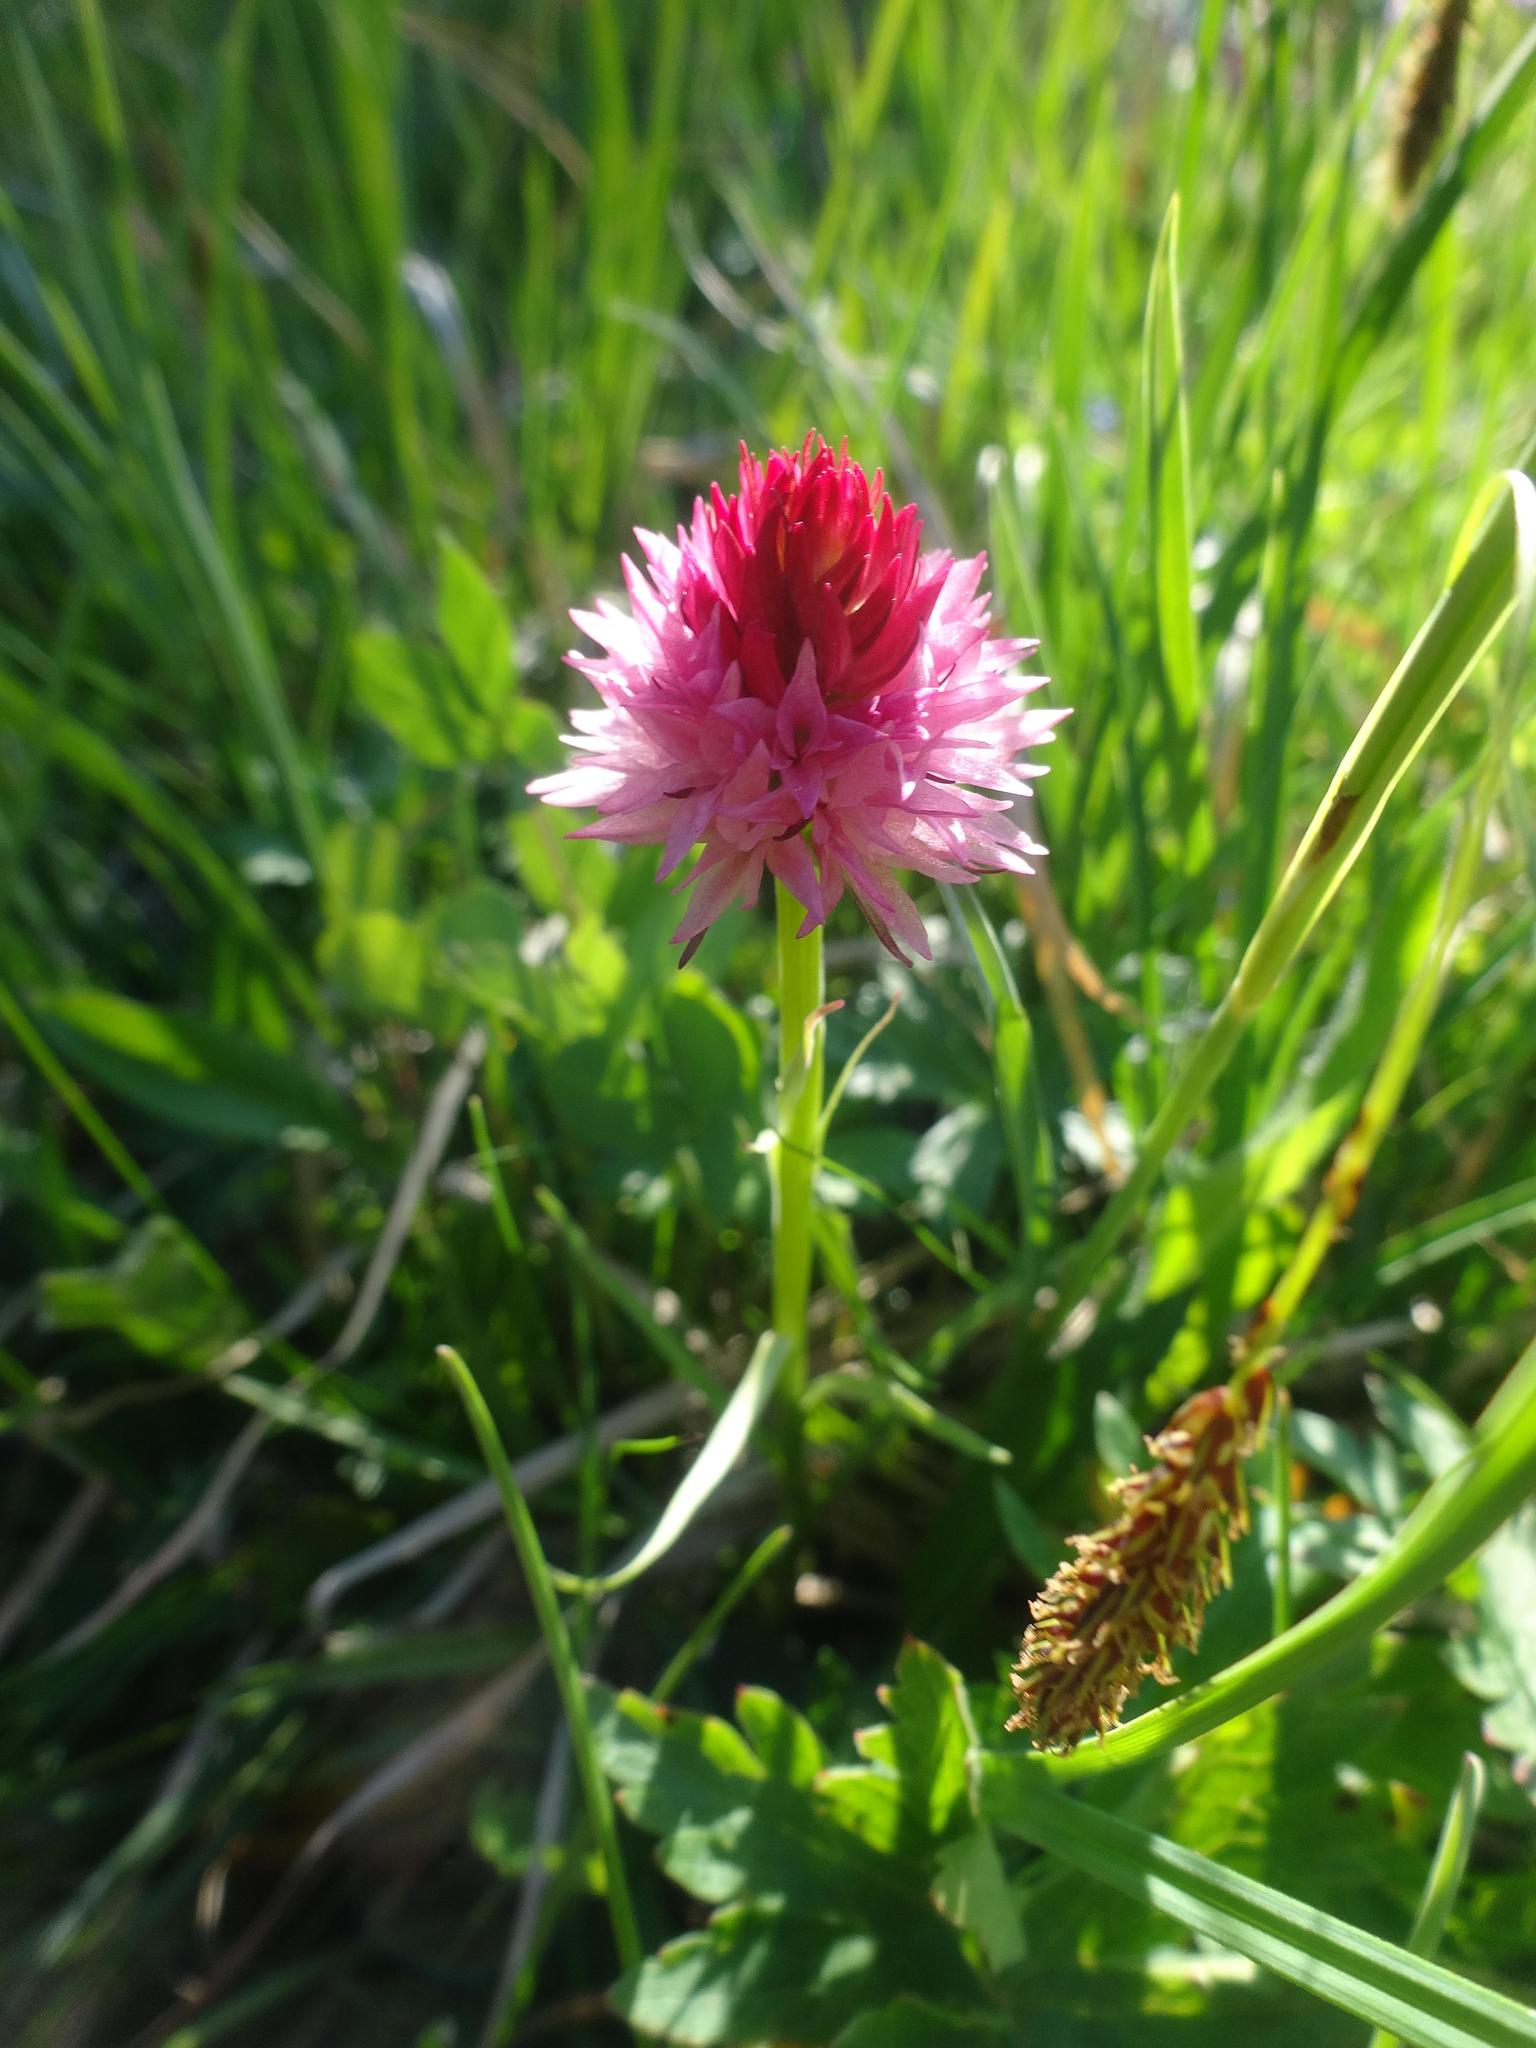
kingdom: Plantae
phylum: Tracheophyta
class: Liliopsida
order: Asparagales
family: Orchidaceae
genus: Gymnadenia
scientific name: Gymnadenia corneliana
